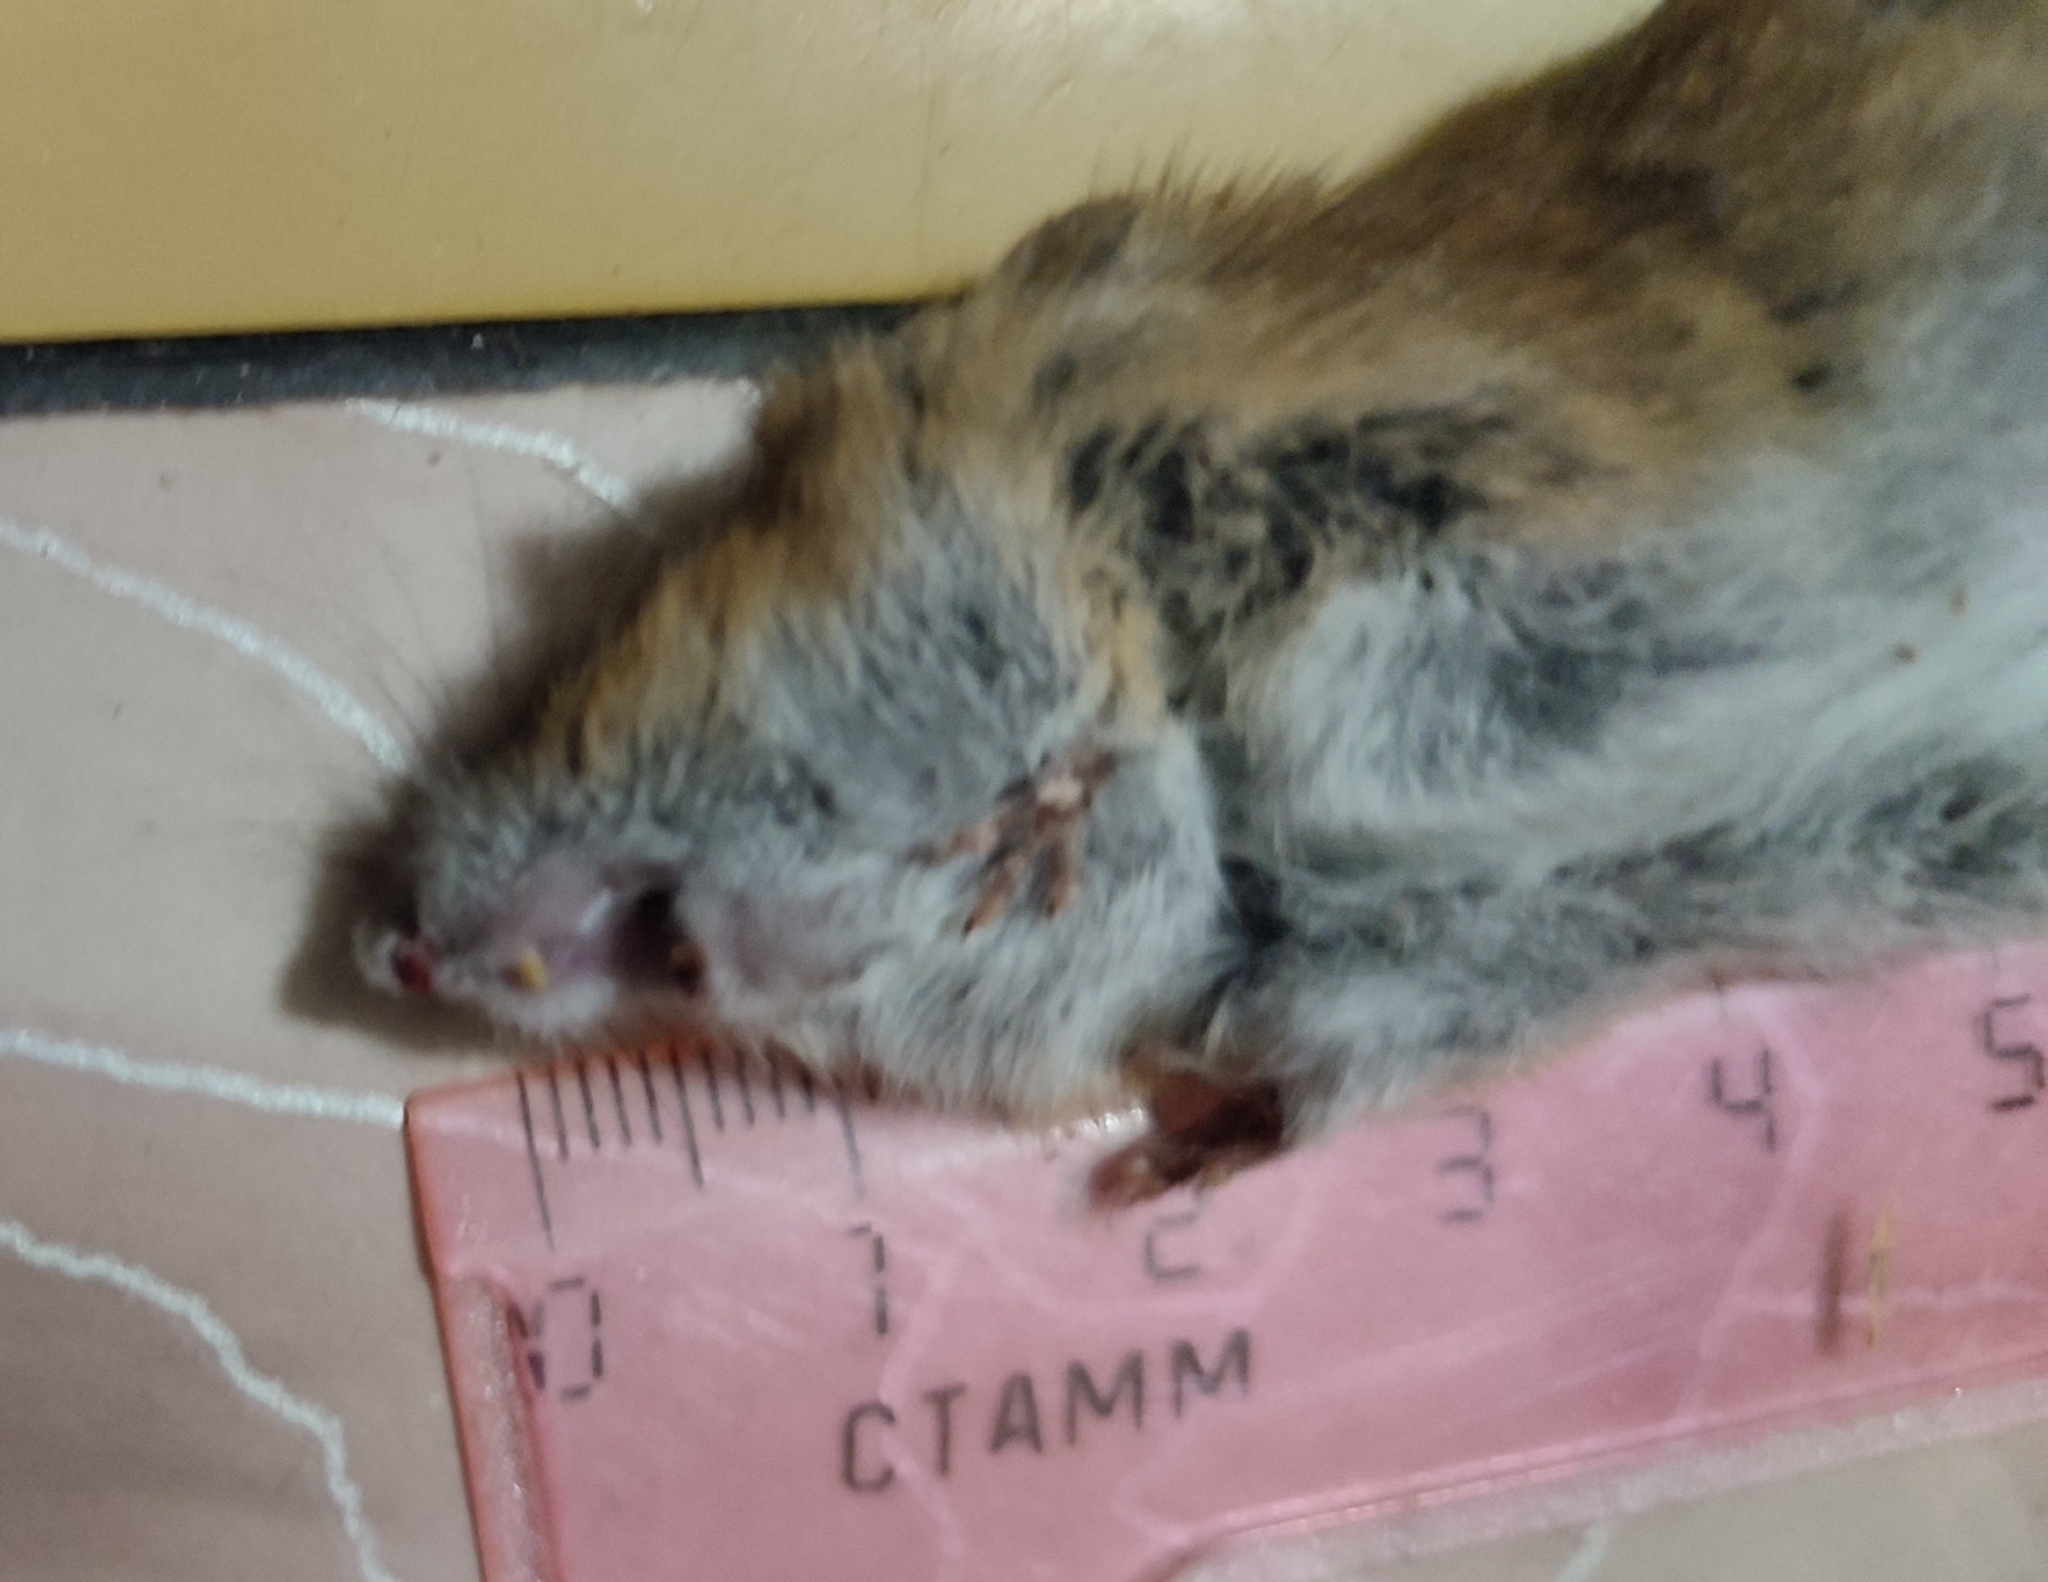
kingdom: Animalia
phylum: Chordata
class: Mammalia
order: Rodentia
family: Muridae
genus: Apodemus
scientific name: Apodemus agrarius
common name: Striped field mouse
